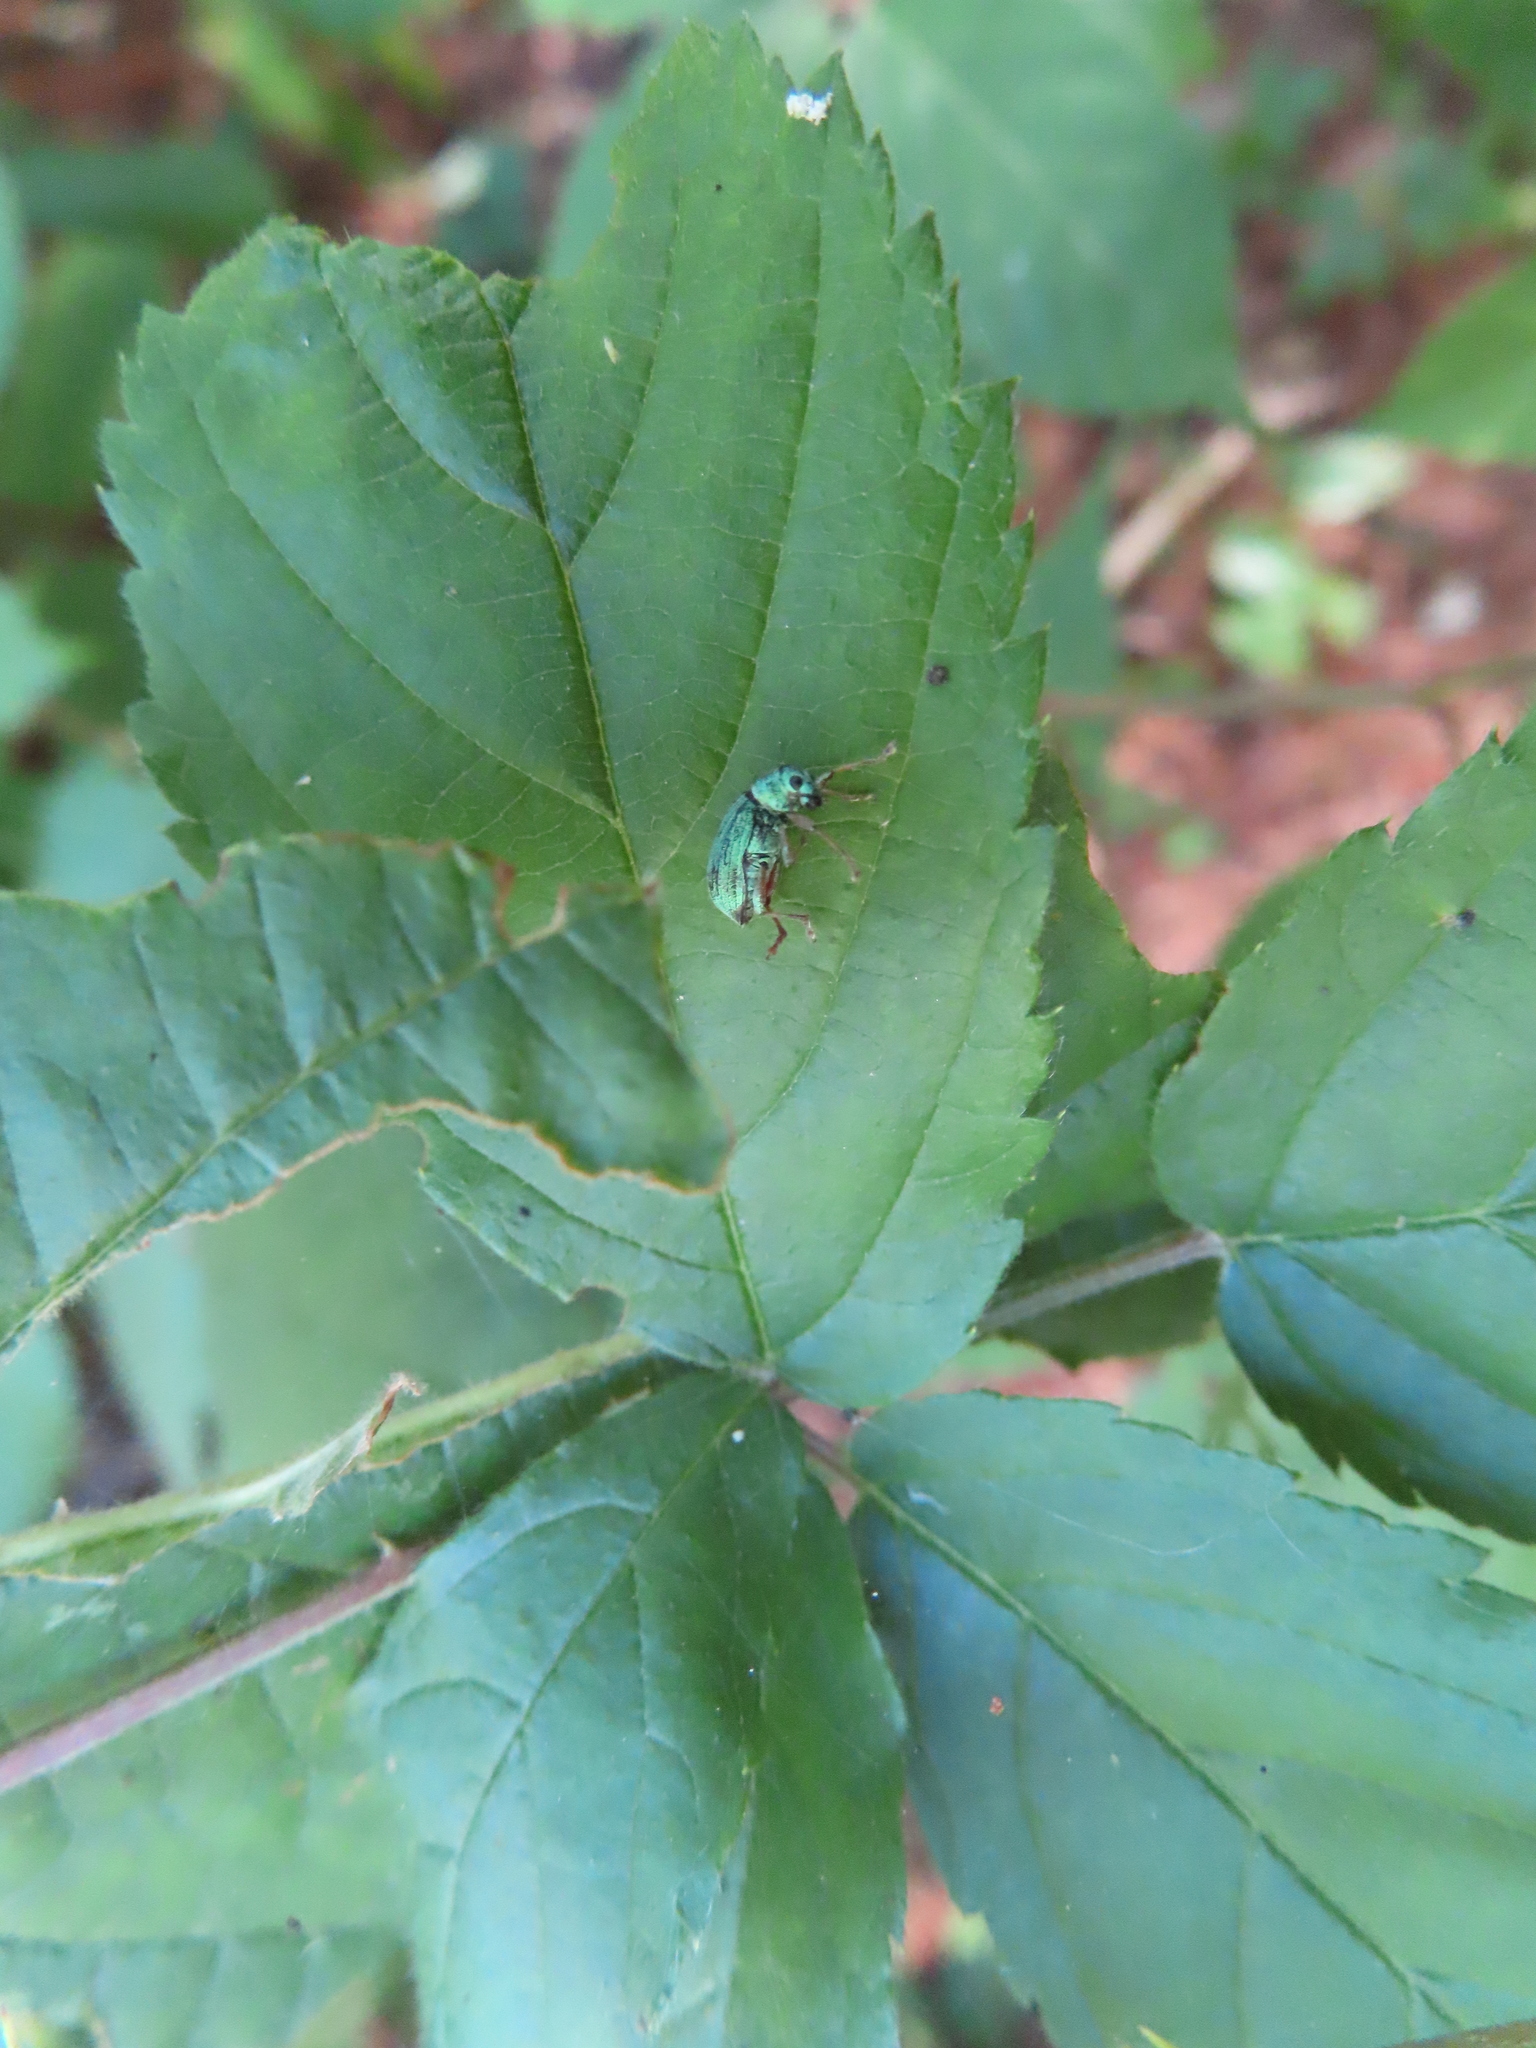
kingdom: Animalia
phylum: Arthropoda
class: Insecta
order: Coleoptera
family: Curculionidae
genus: Polydrusus
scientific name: Polydrusus formosus
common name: Weevil
